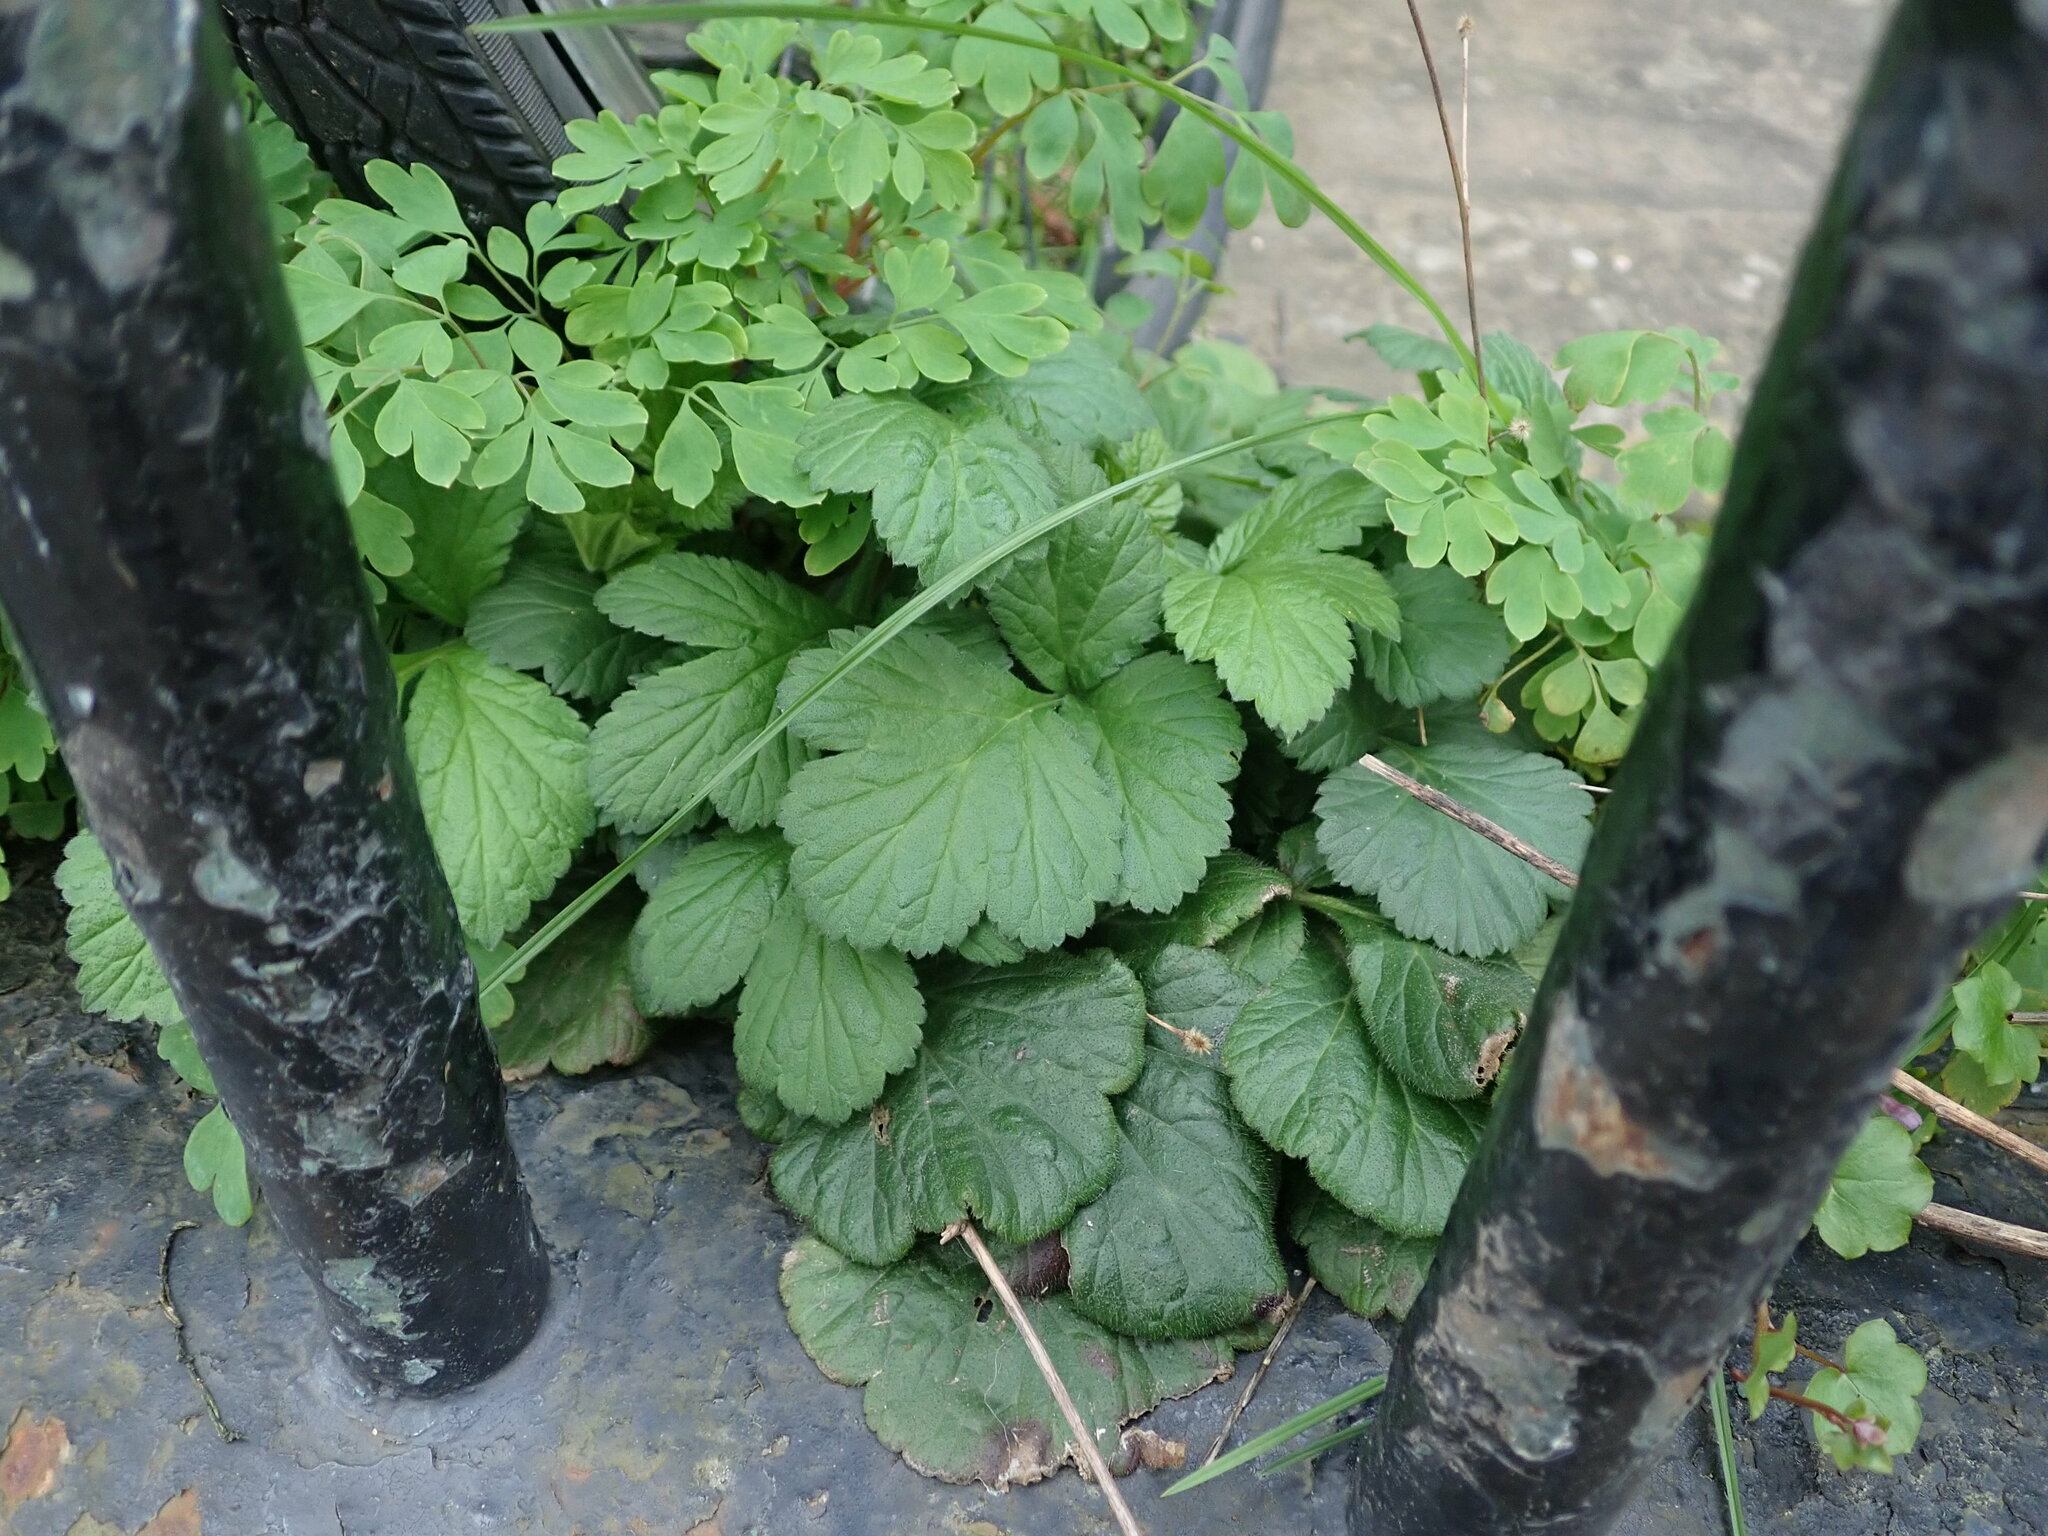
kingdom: Plantae
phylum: Tracheophyta
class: Magnoliopsida
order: Rosales
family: Rosaceae
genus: Geum
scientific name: Geum urbanum
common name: Wood avens
